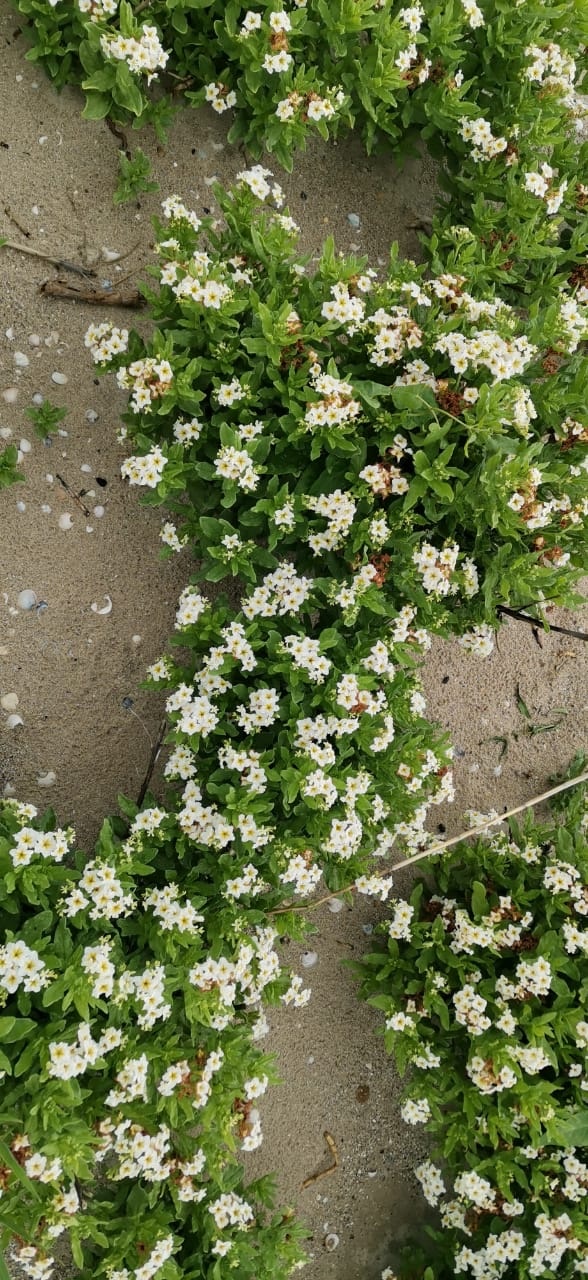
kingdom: Plantae
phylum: Tracheophyta
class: Magnoliopsida
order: Boraginales
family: Heliotropiaceae
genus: Tournefortia
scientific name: Tournefortia sibirica
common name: Siberian sea rosemary
